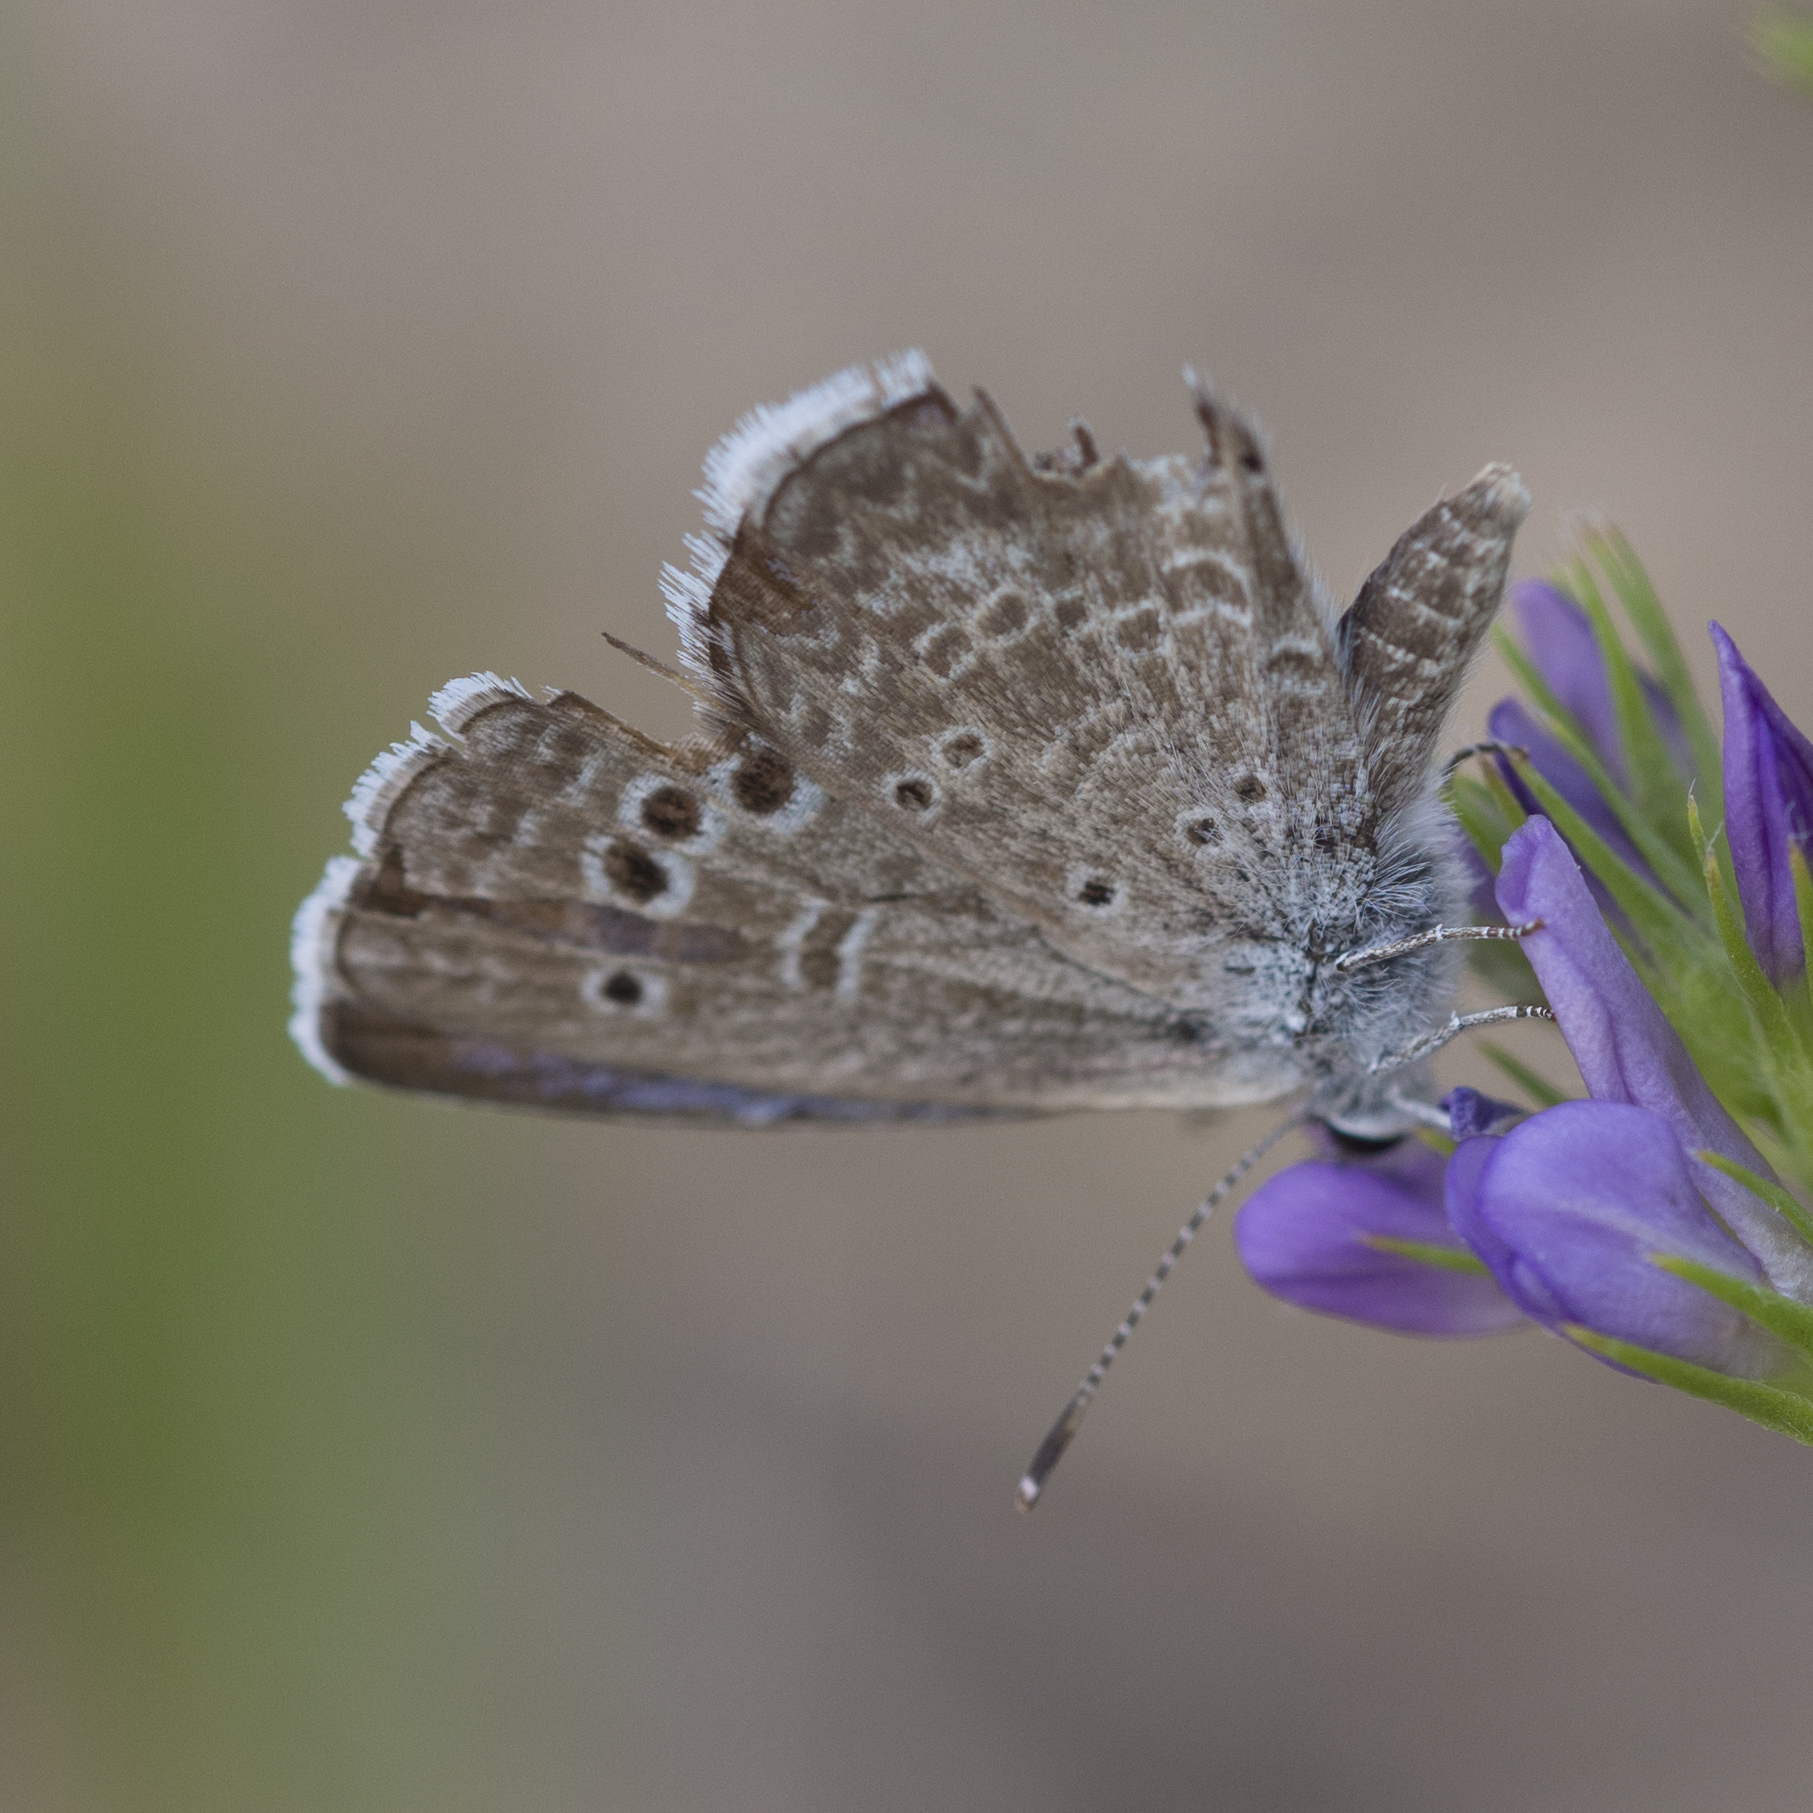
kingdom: Animalia
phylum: Arthropoda
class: Insecta
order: Lepidoptera
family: Lycaenidae
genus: Echinargus
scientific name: Echinargus isola
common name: Reakirt's blue
